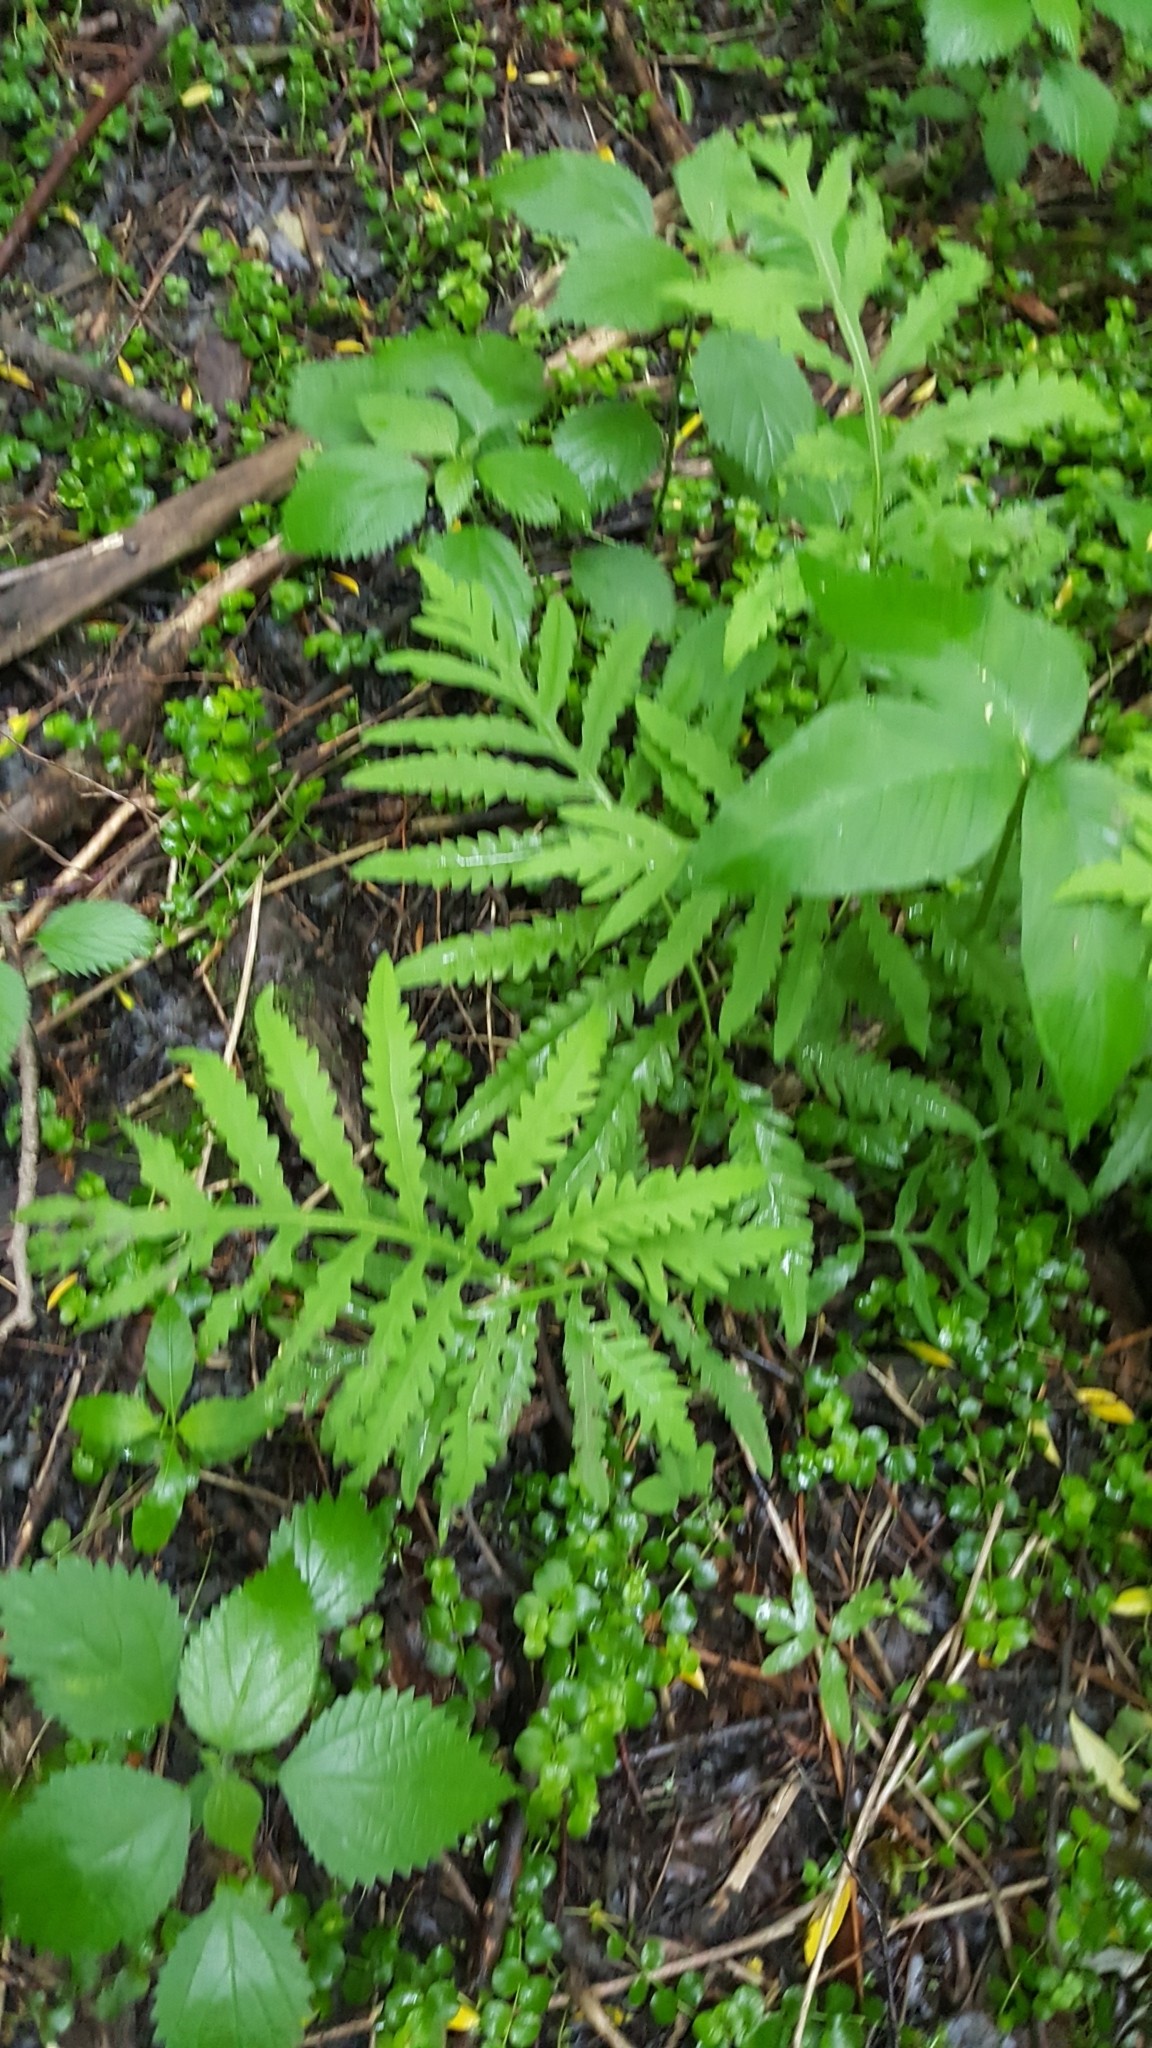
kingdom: Plantae
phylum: Tracheophyta
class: Polypodiopsida
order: Polypodiales
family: Onocleaceae
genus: Onoclea
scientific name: Onoclea sensibilis
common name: Sensitive fern
